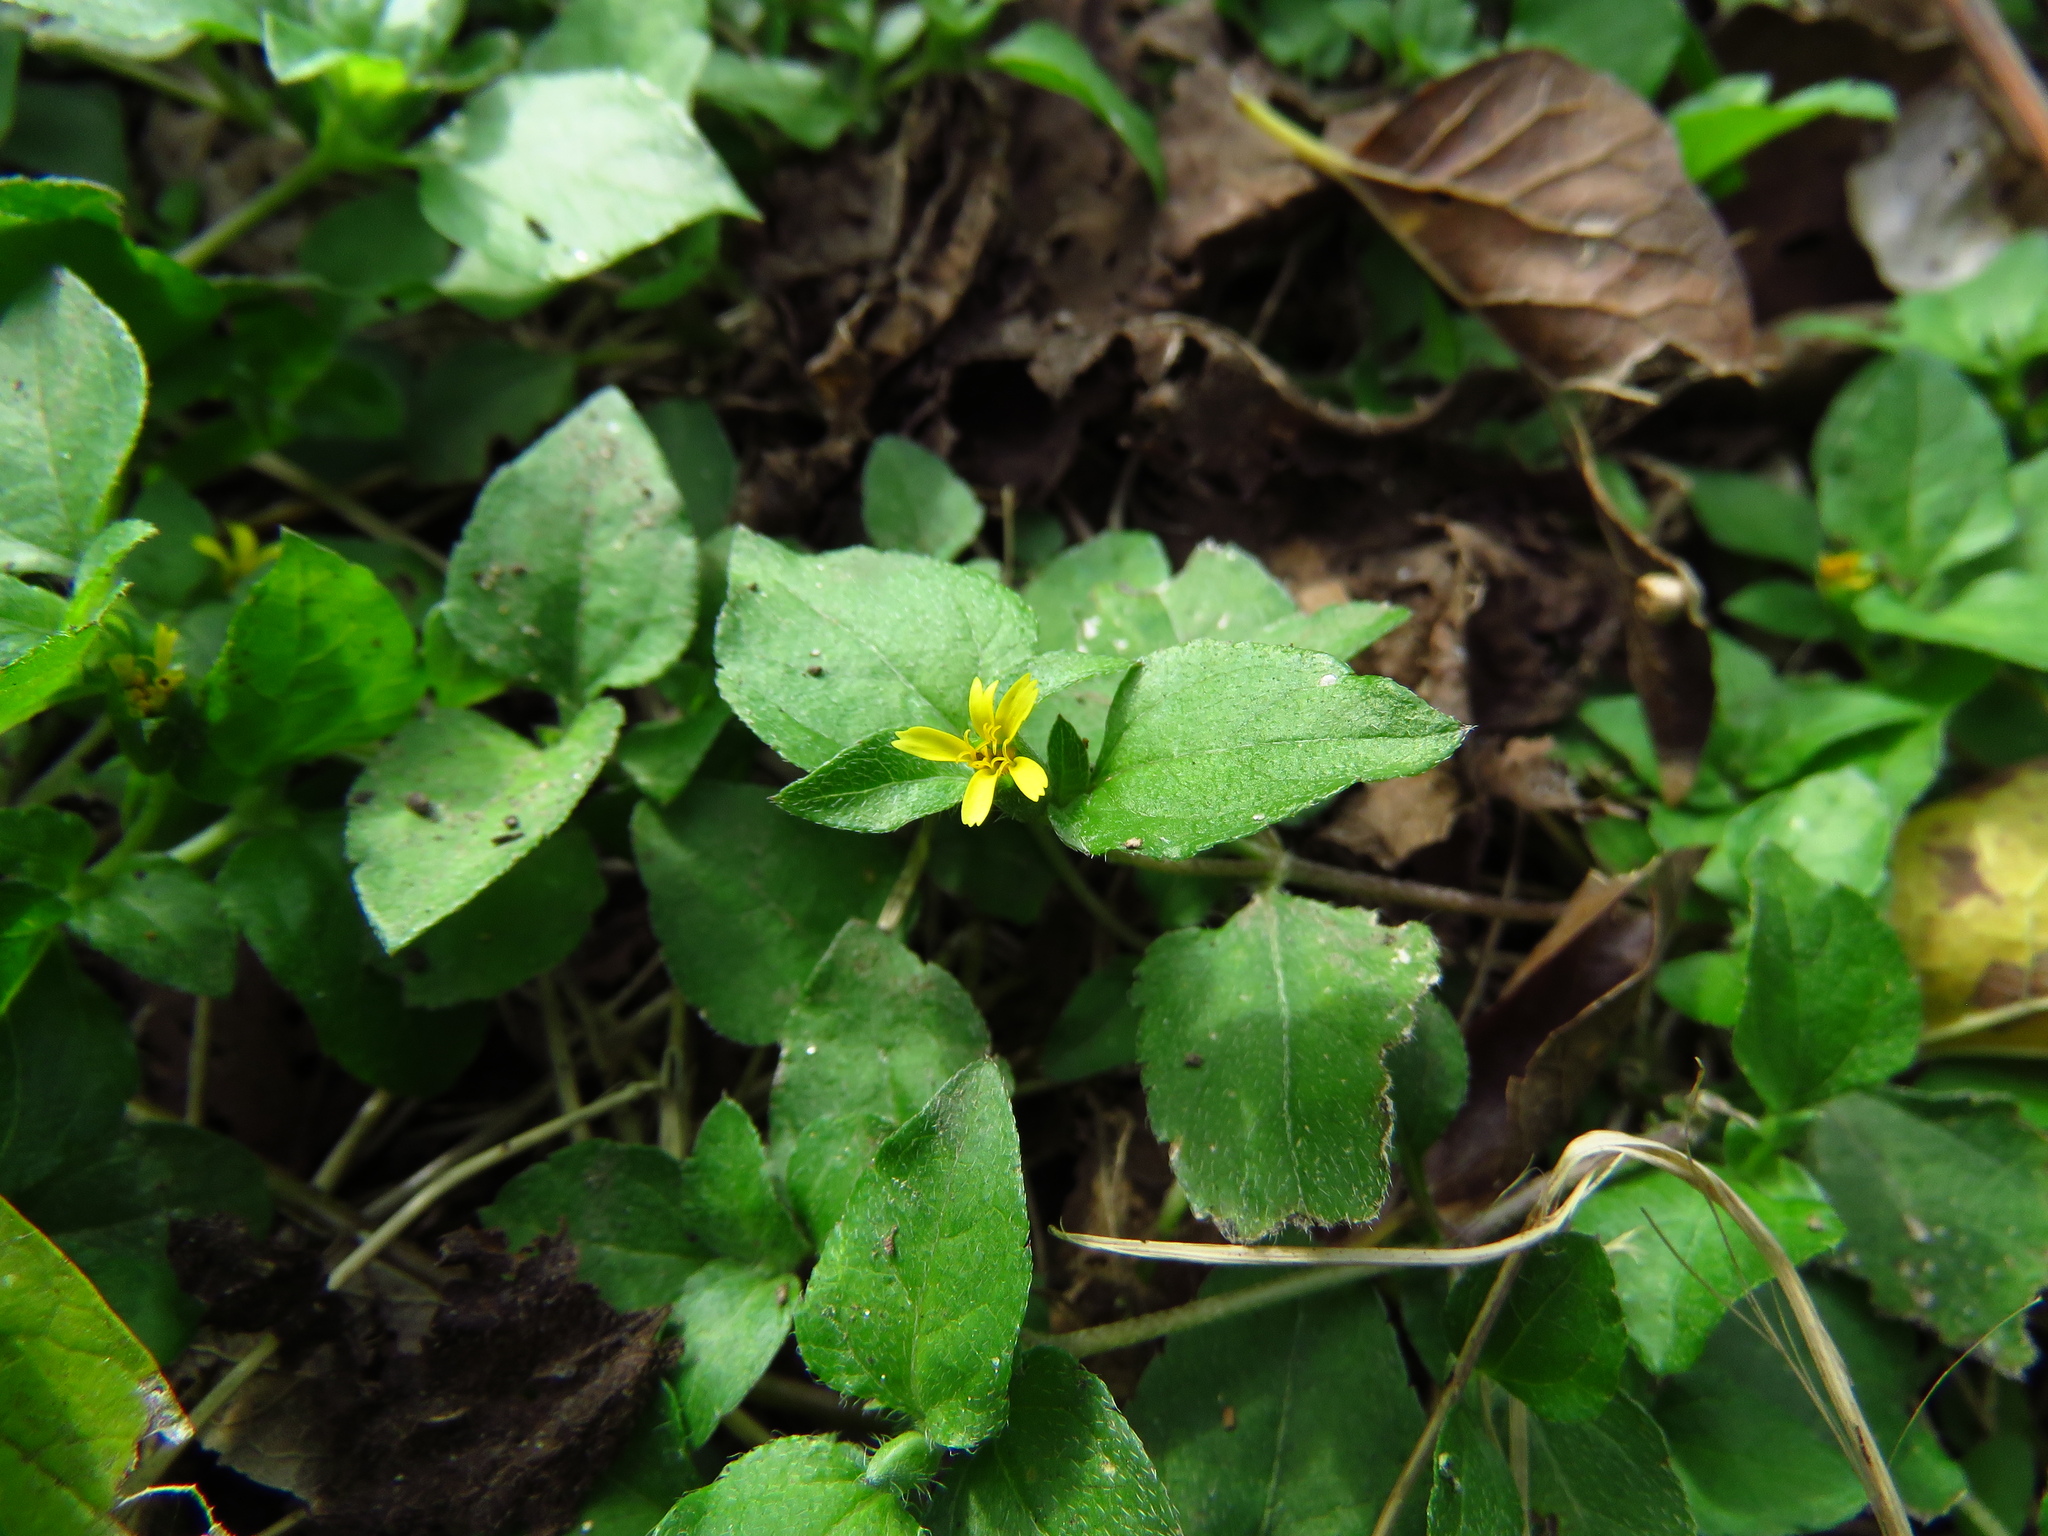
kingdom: Plantae
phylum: Tracheophyta
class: Magnoliopsida
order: Asterales
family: Asteraceae
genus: Calyptocarpus
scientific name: Calyptocarpus vialis
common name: Straggler daisy
